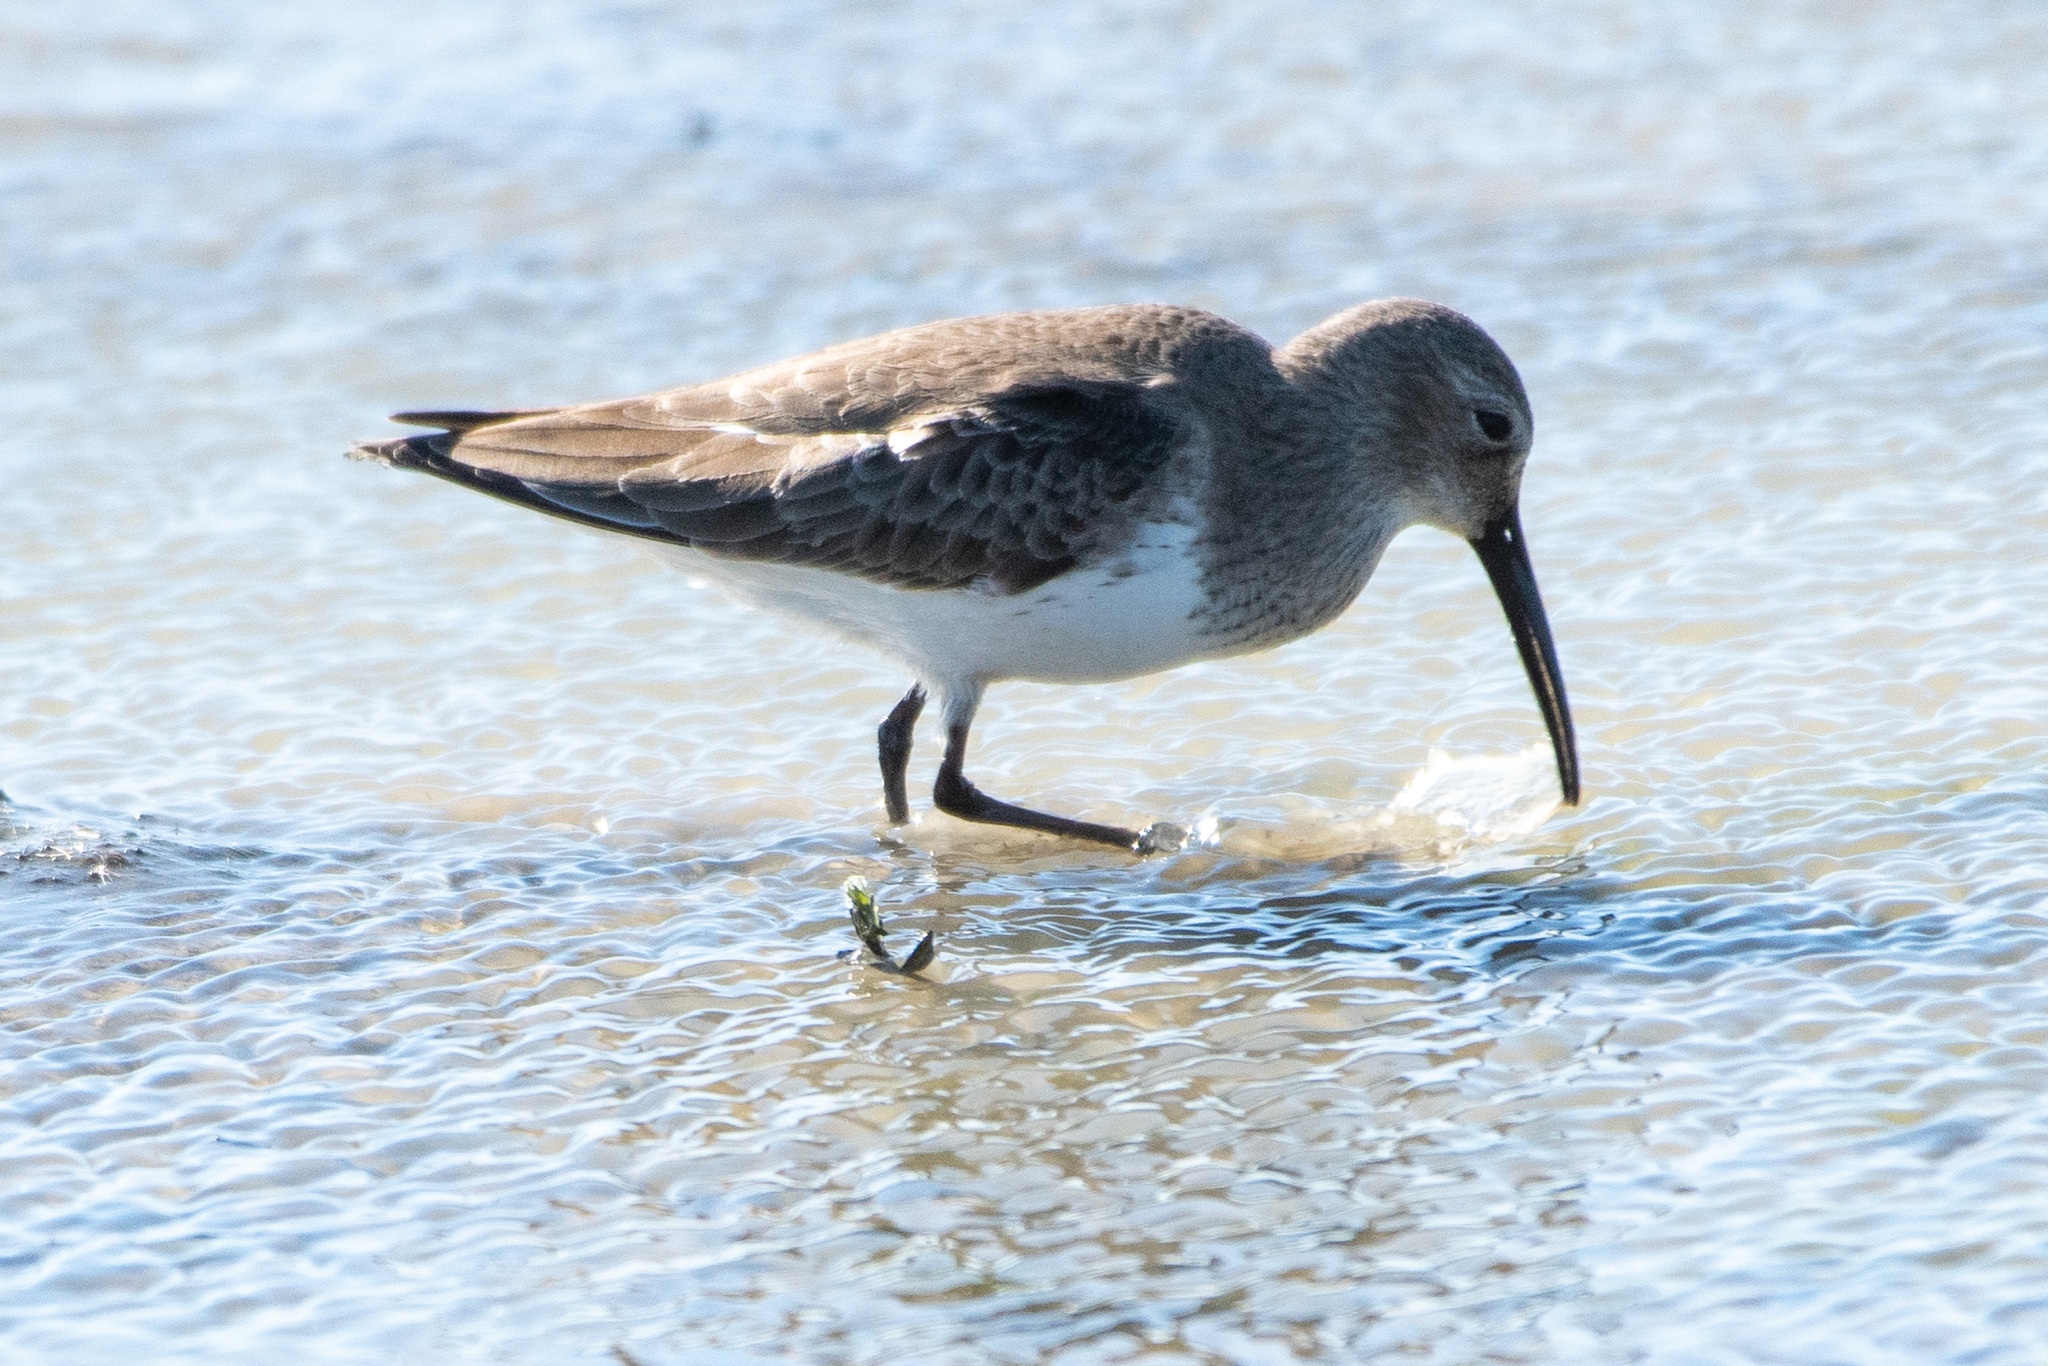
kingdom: Animalia
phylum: Chordata
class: Aves
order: Charadriiformes
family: Scolopacidae
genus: Calidris
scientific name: Calidris alpina
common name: Dunlin
